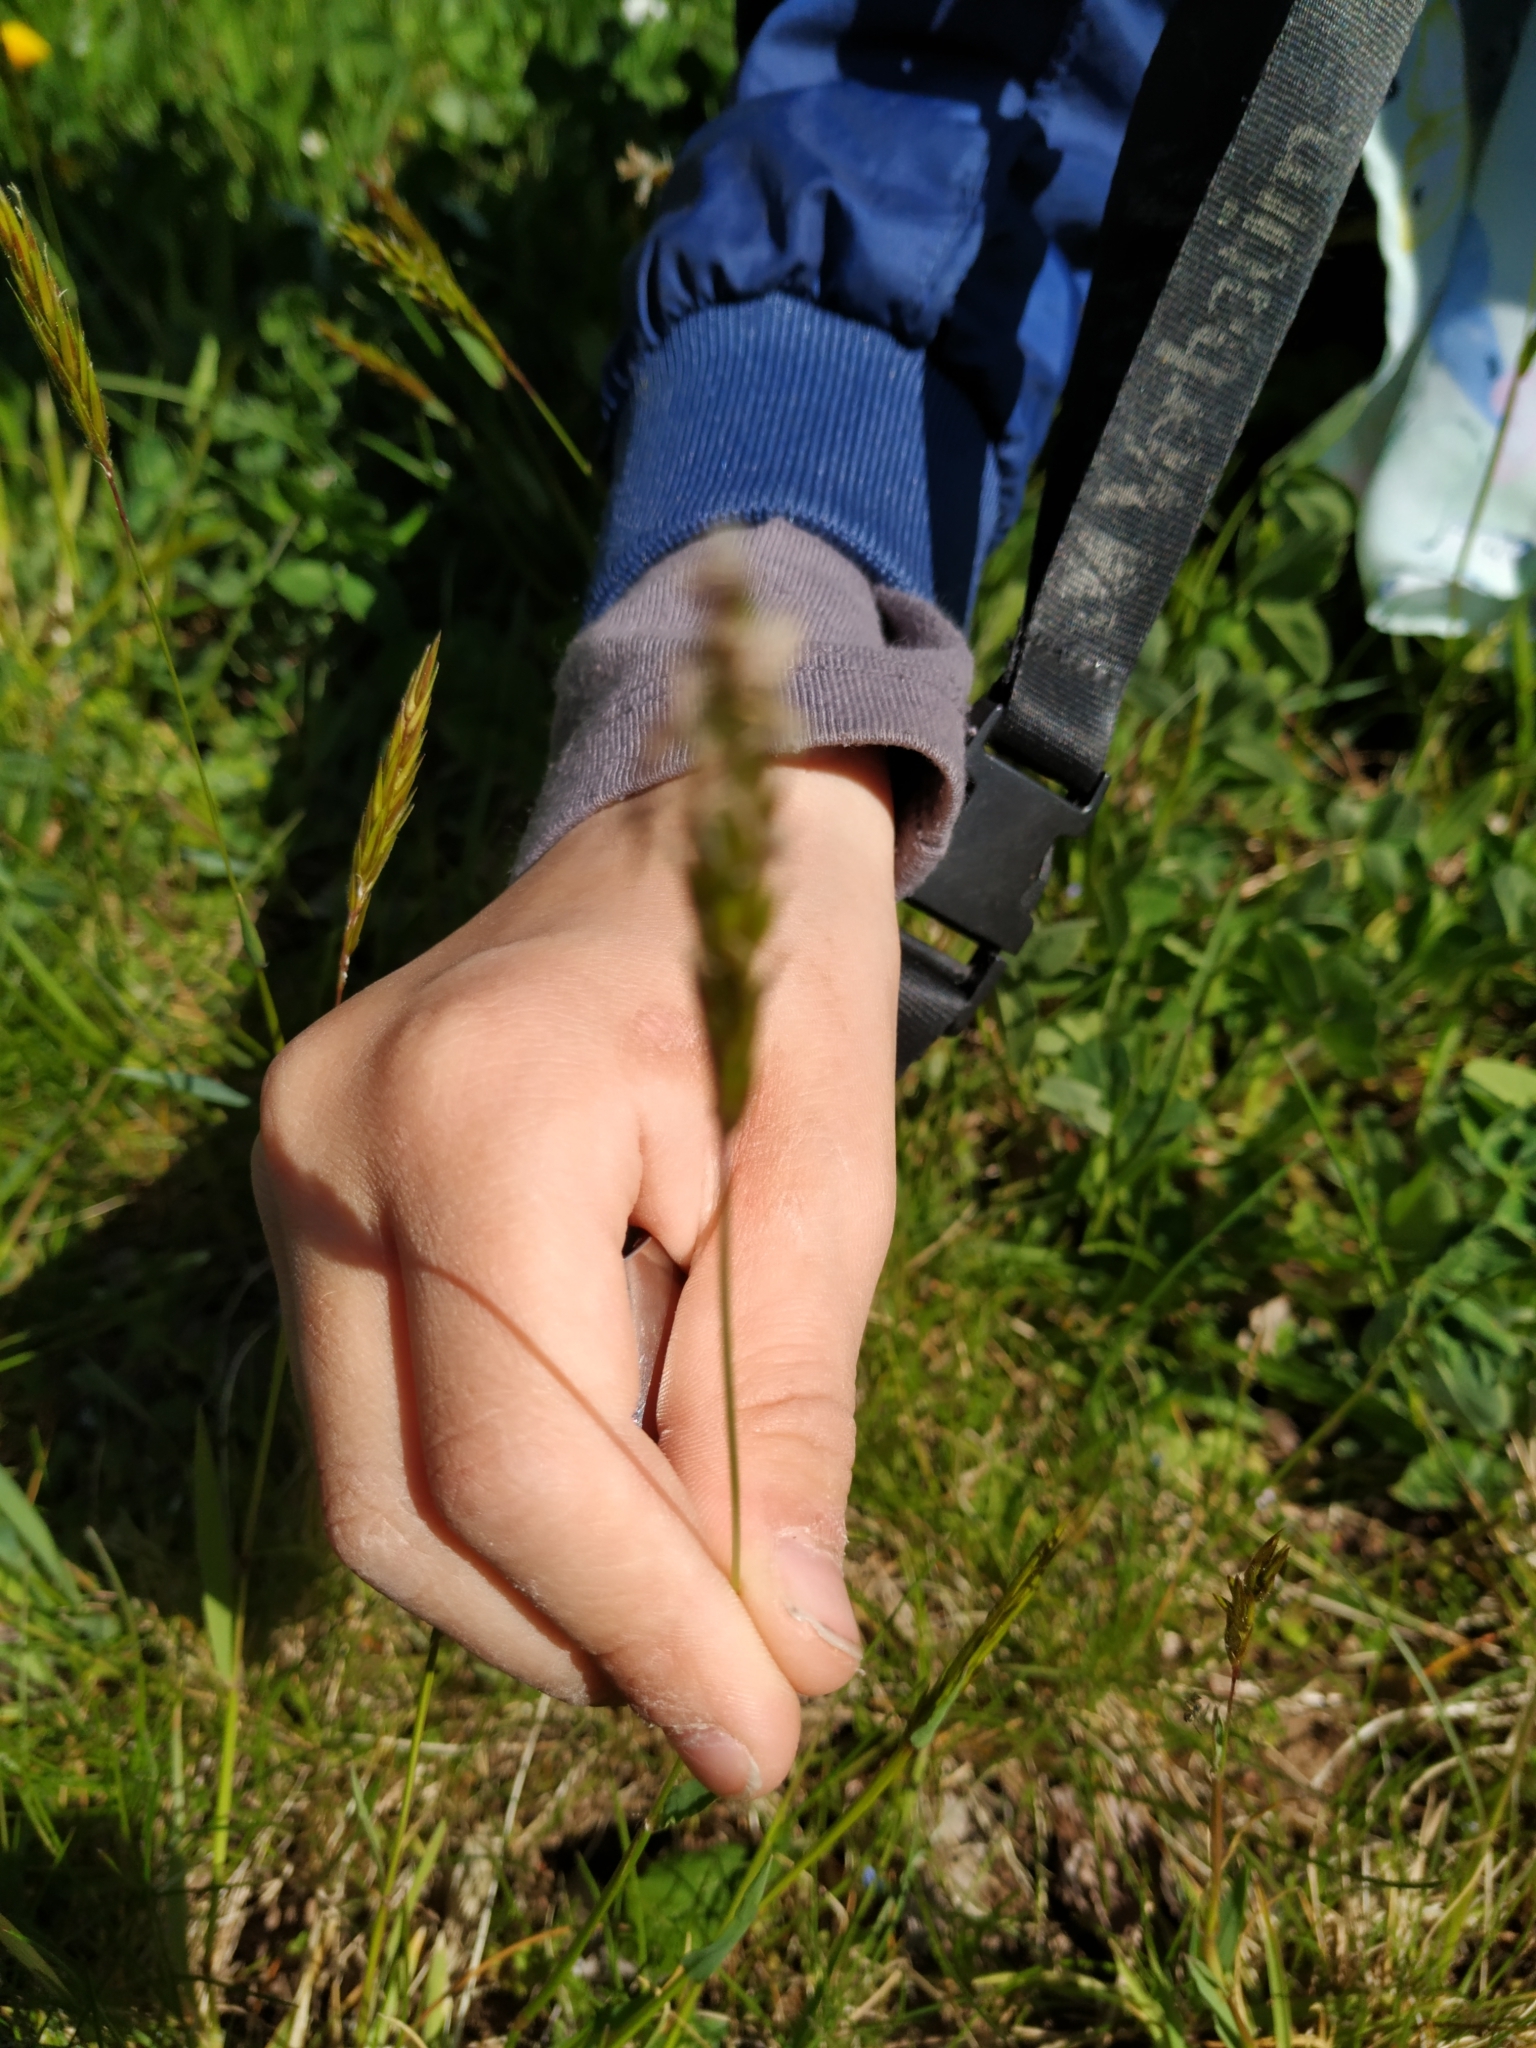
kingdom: Plantae
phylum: Tracheophyta
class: Liliopsida
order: Poales
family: Poaceae
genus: Anthoxanthum
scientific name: Anthoxanthum odoratum
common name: Sweet vernalgrass
